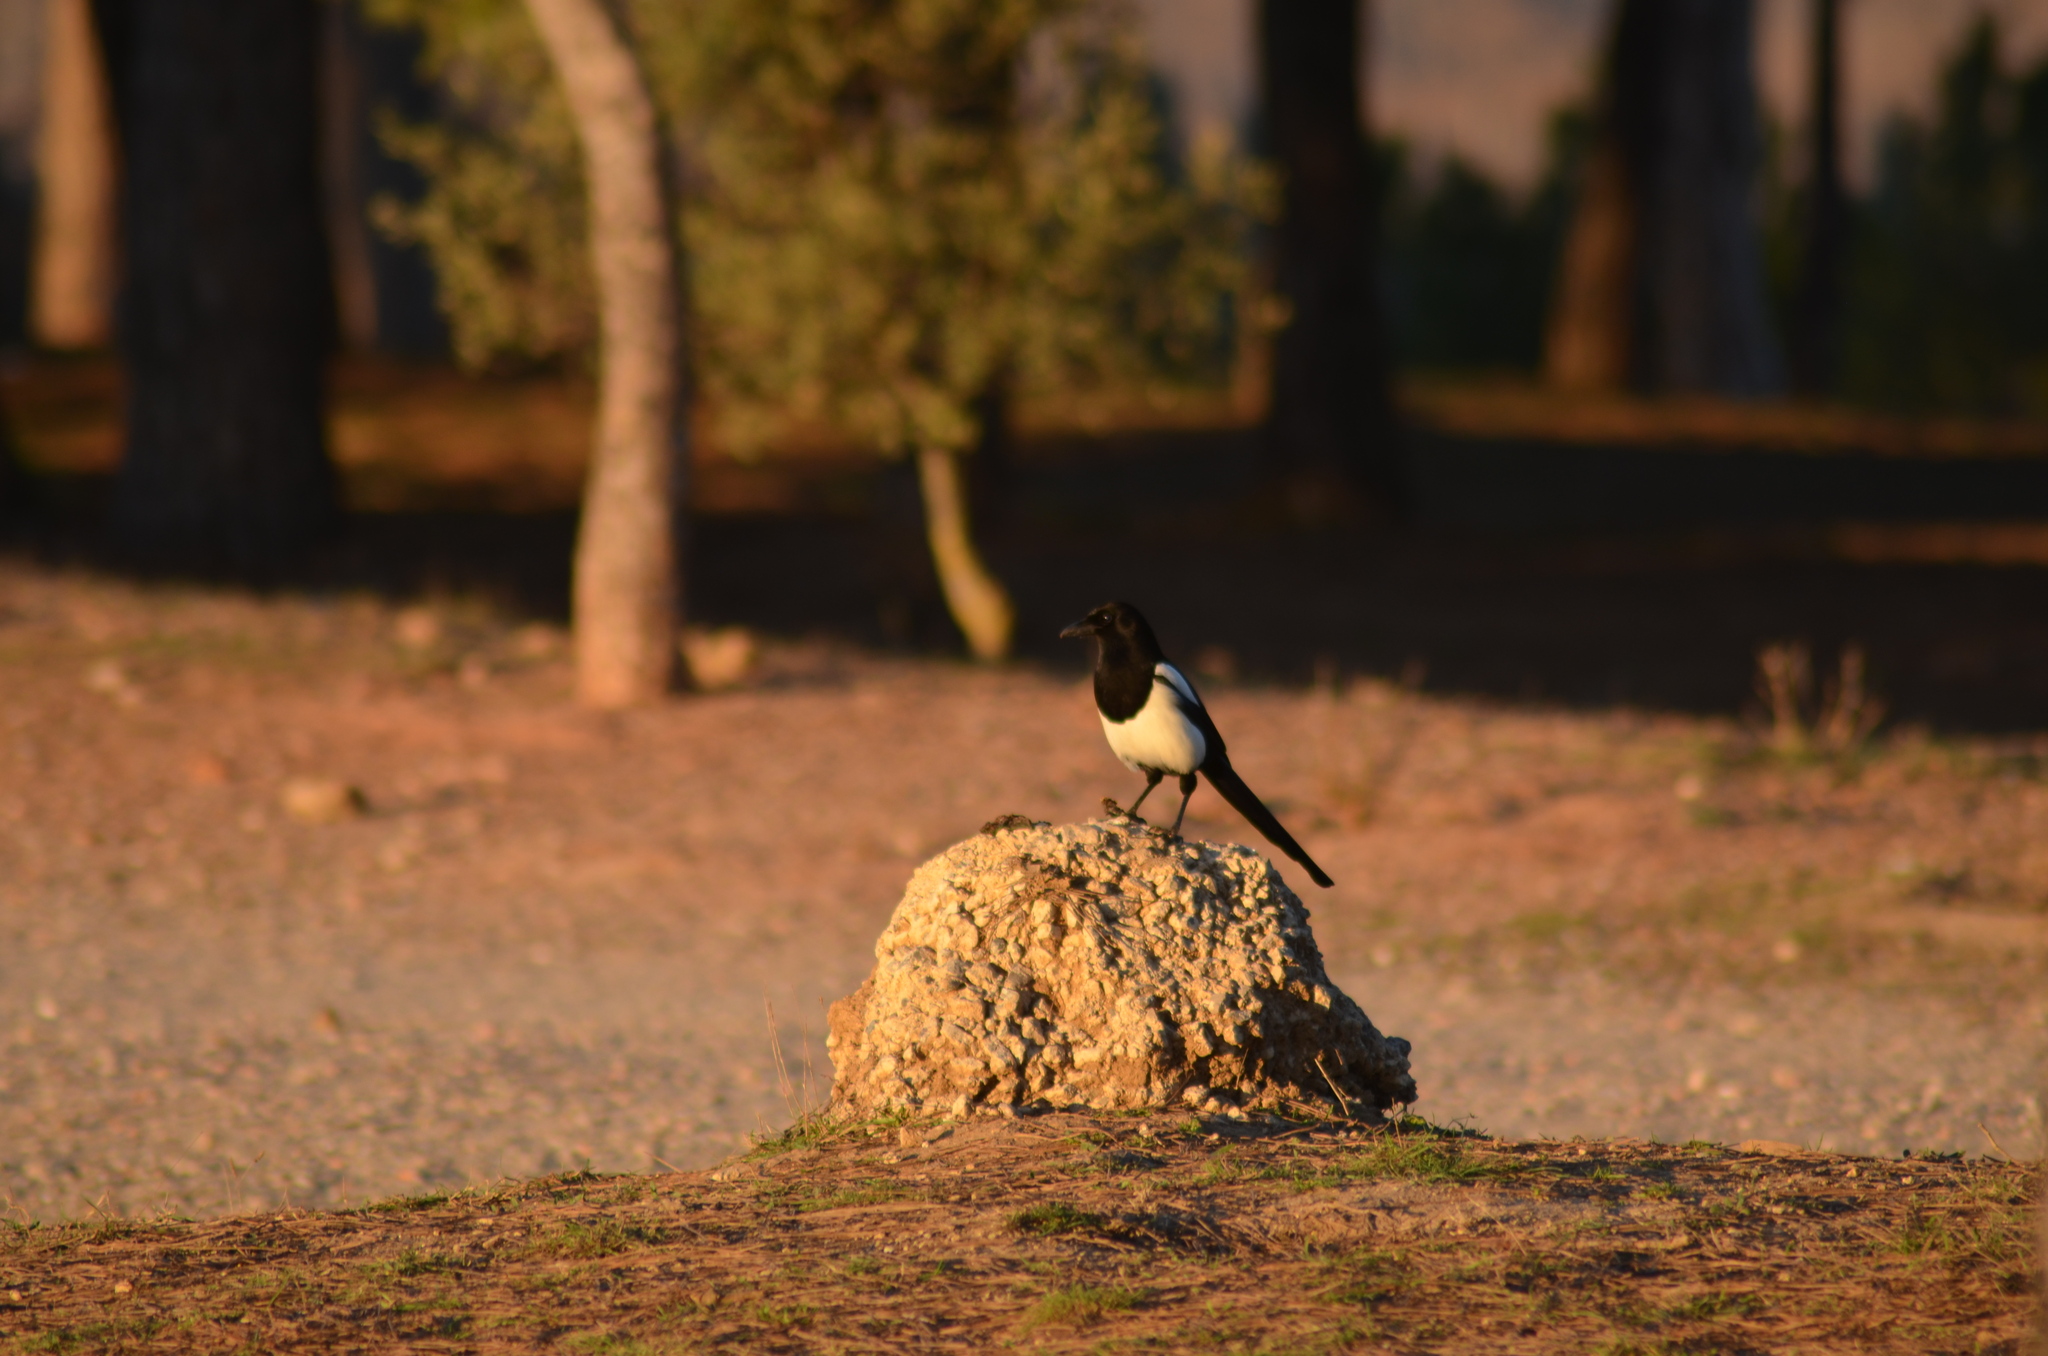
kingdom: Animalia
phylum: Chordata
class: Aves
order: Passeriformes
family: Corvidae
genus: Pica
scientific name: Pica pica
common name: Eurasian magpie
